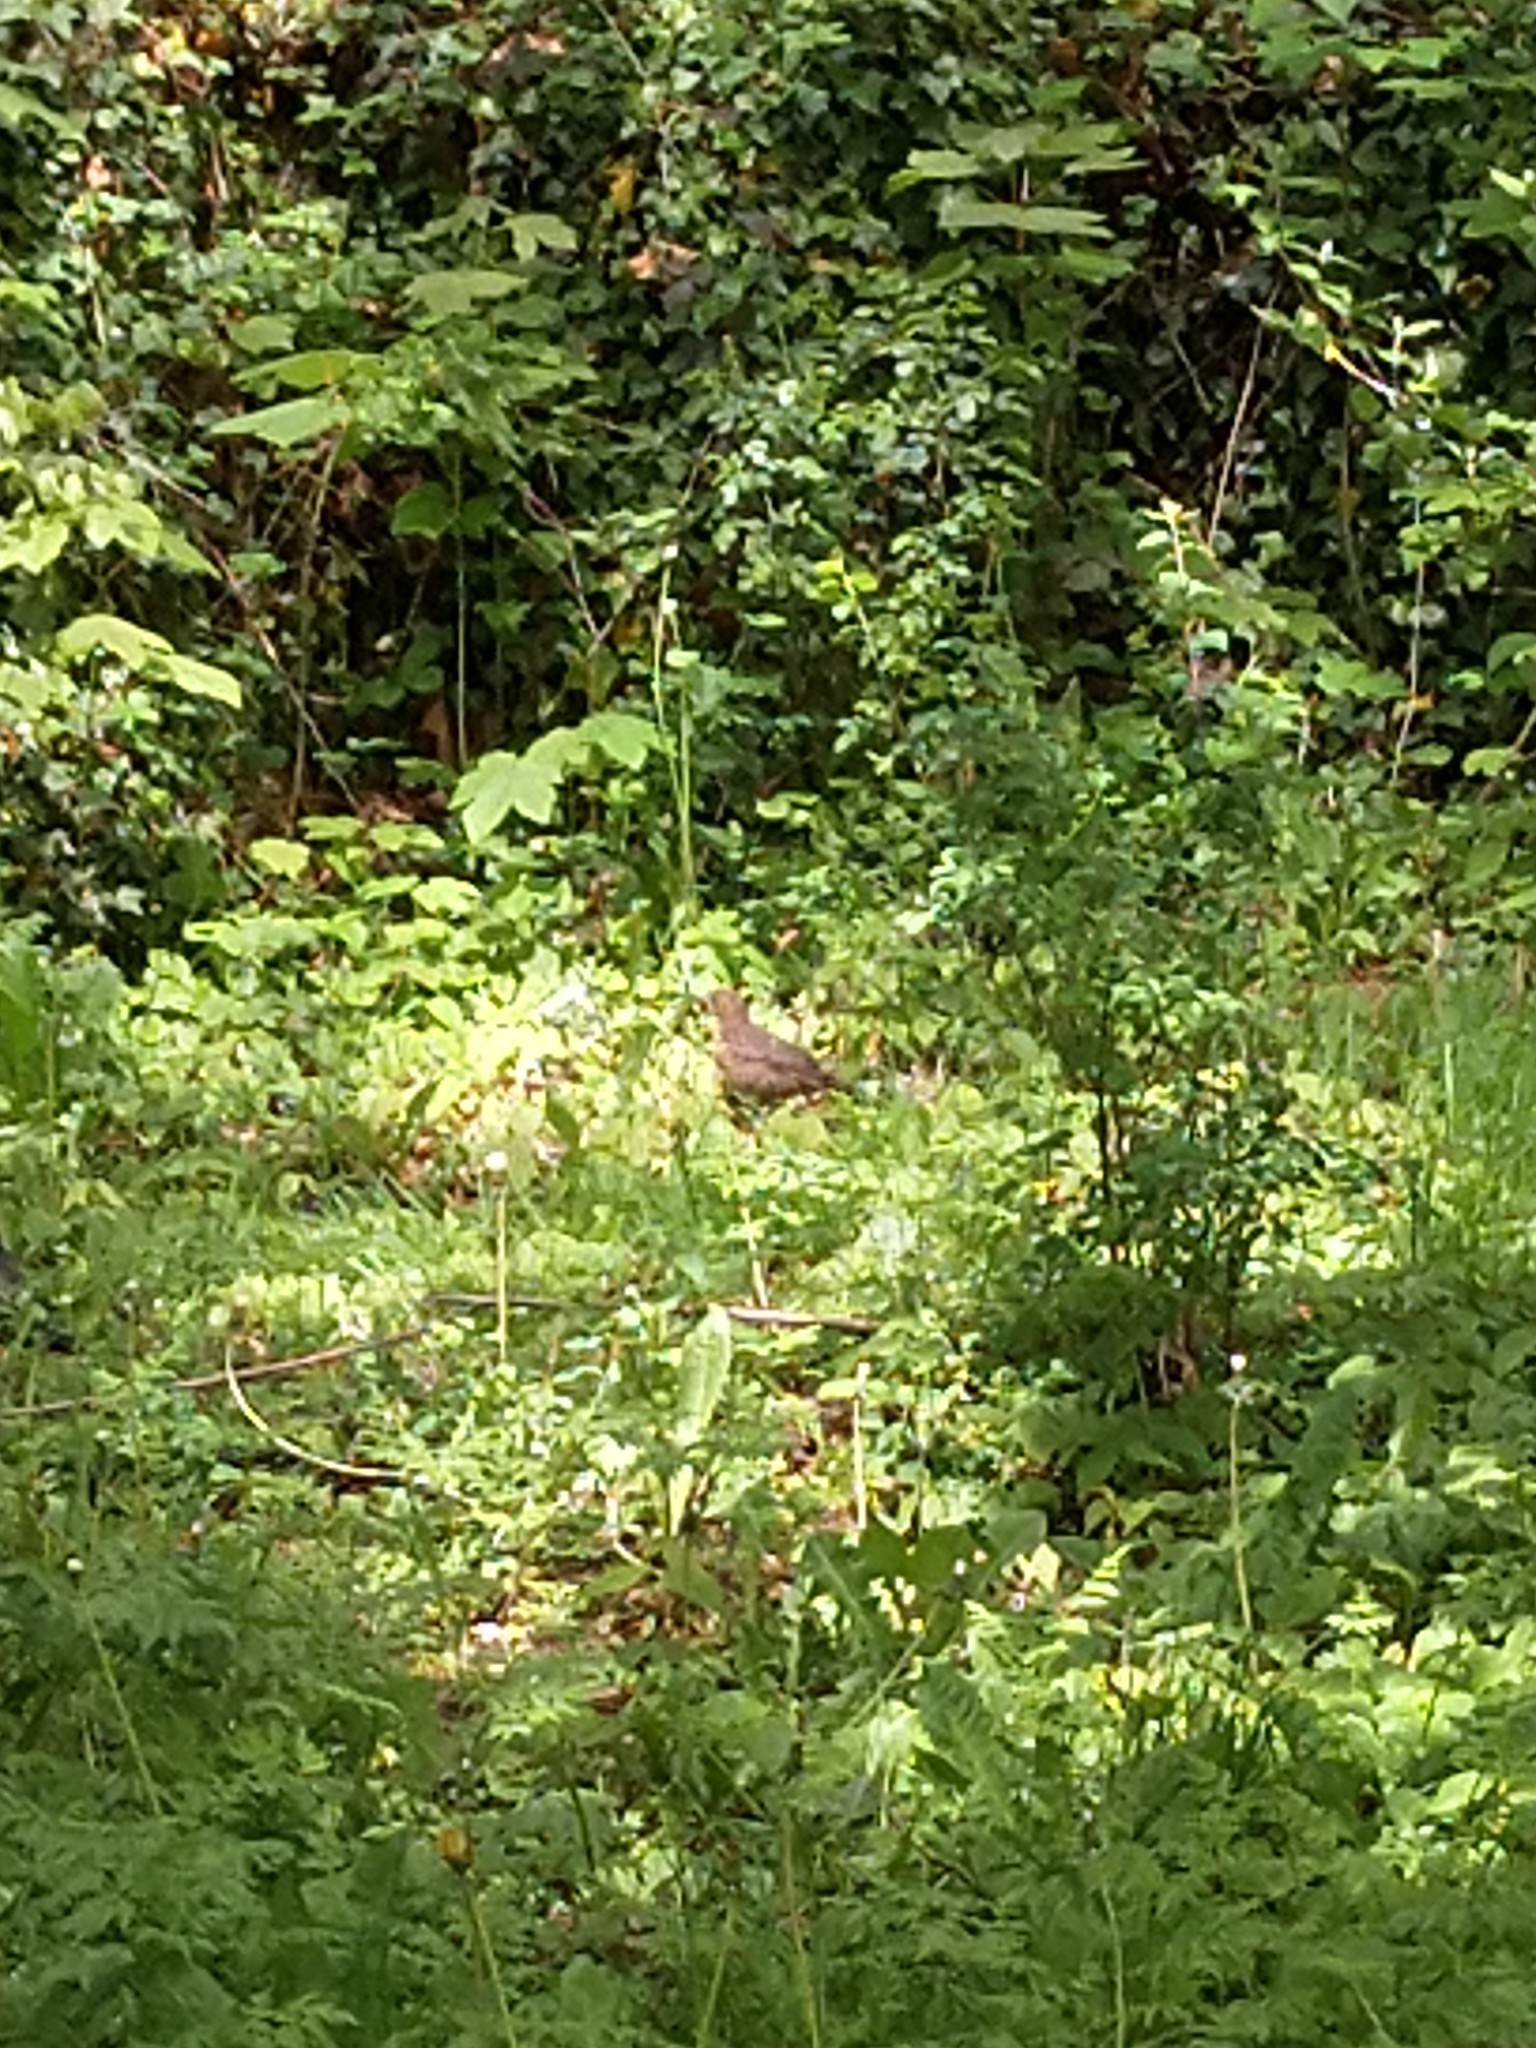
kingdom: Animalia
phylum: Chordata
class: Aves
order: Passeriformes
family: Turdidae
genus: Turdus
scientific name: Turdus merula
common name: Common blackbird
